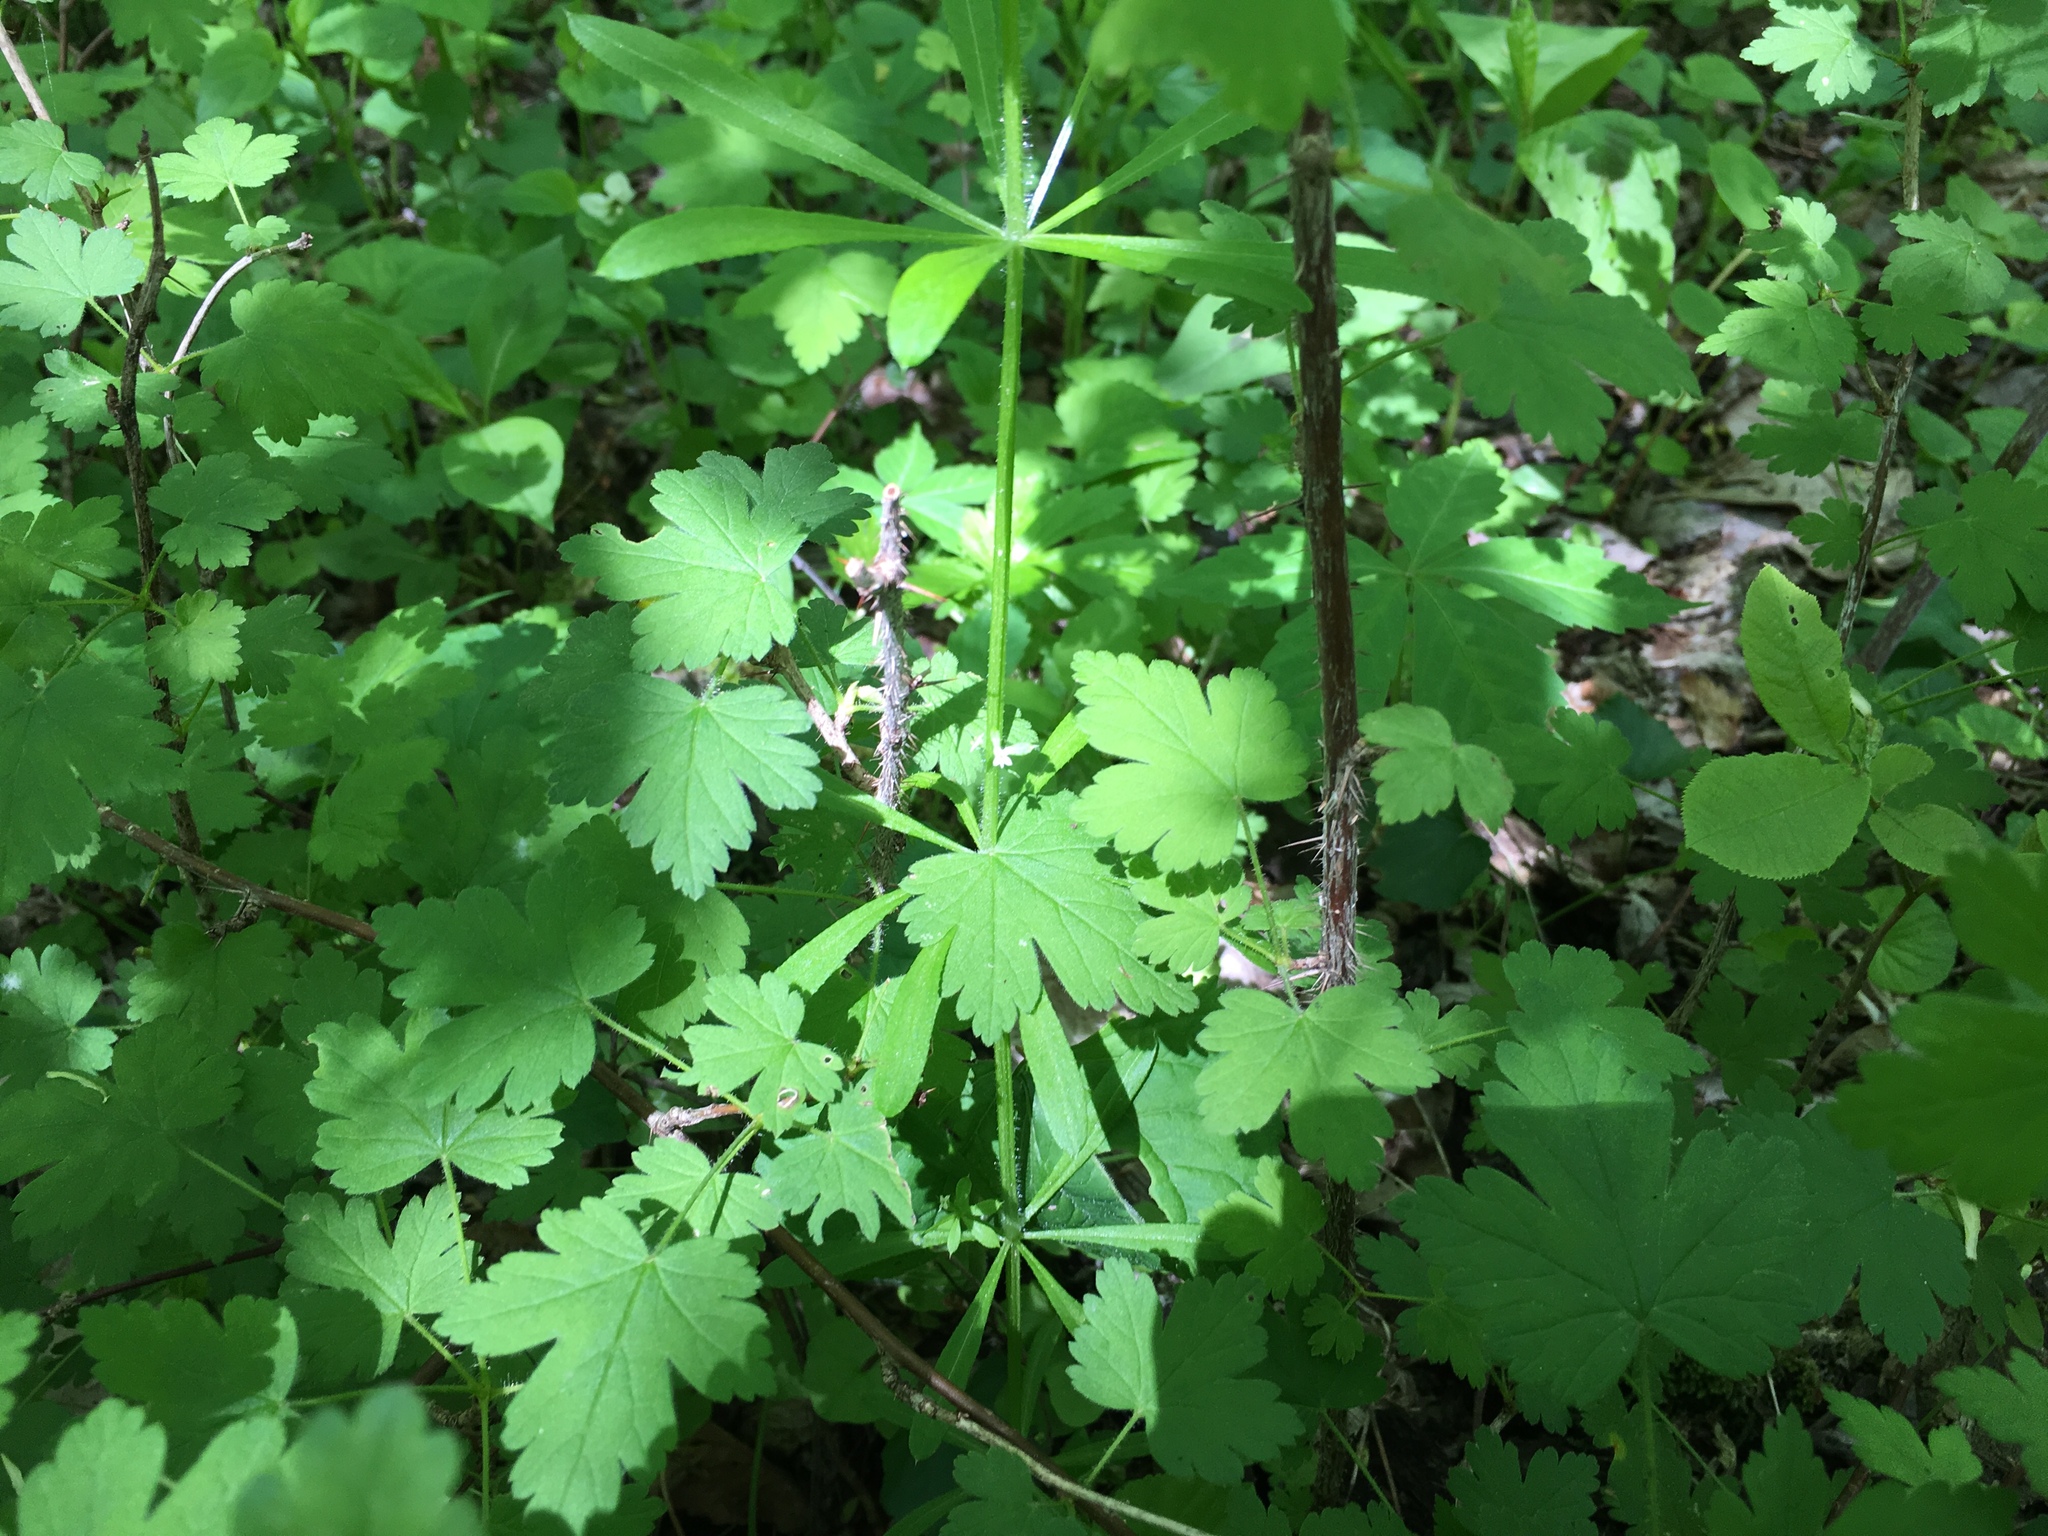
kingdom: Plantae
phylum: Tracheophyta
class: Magnoliopsida
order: Saxifragales
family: Grossulariaceae
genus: Ribes
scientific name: Ribes cynosbati
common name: American gooseberry
